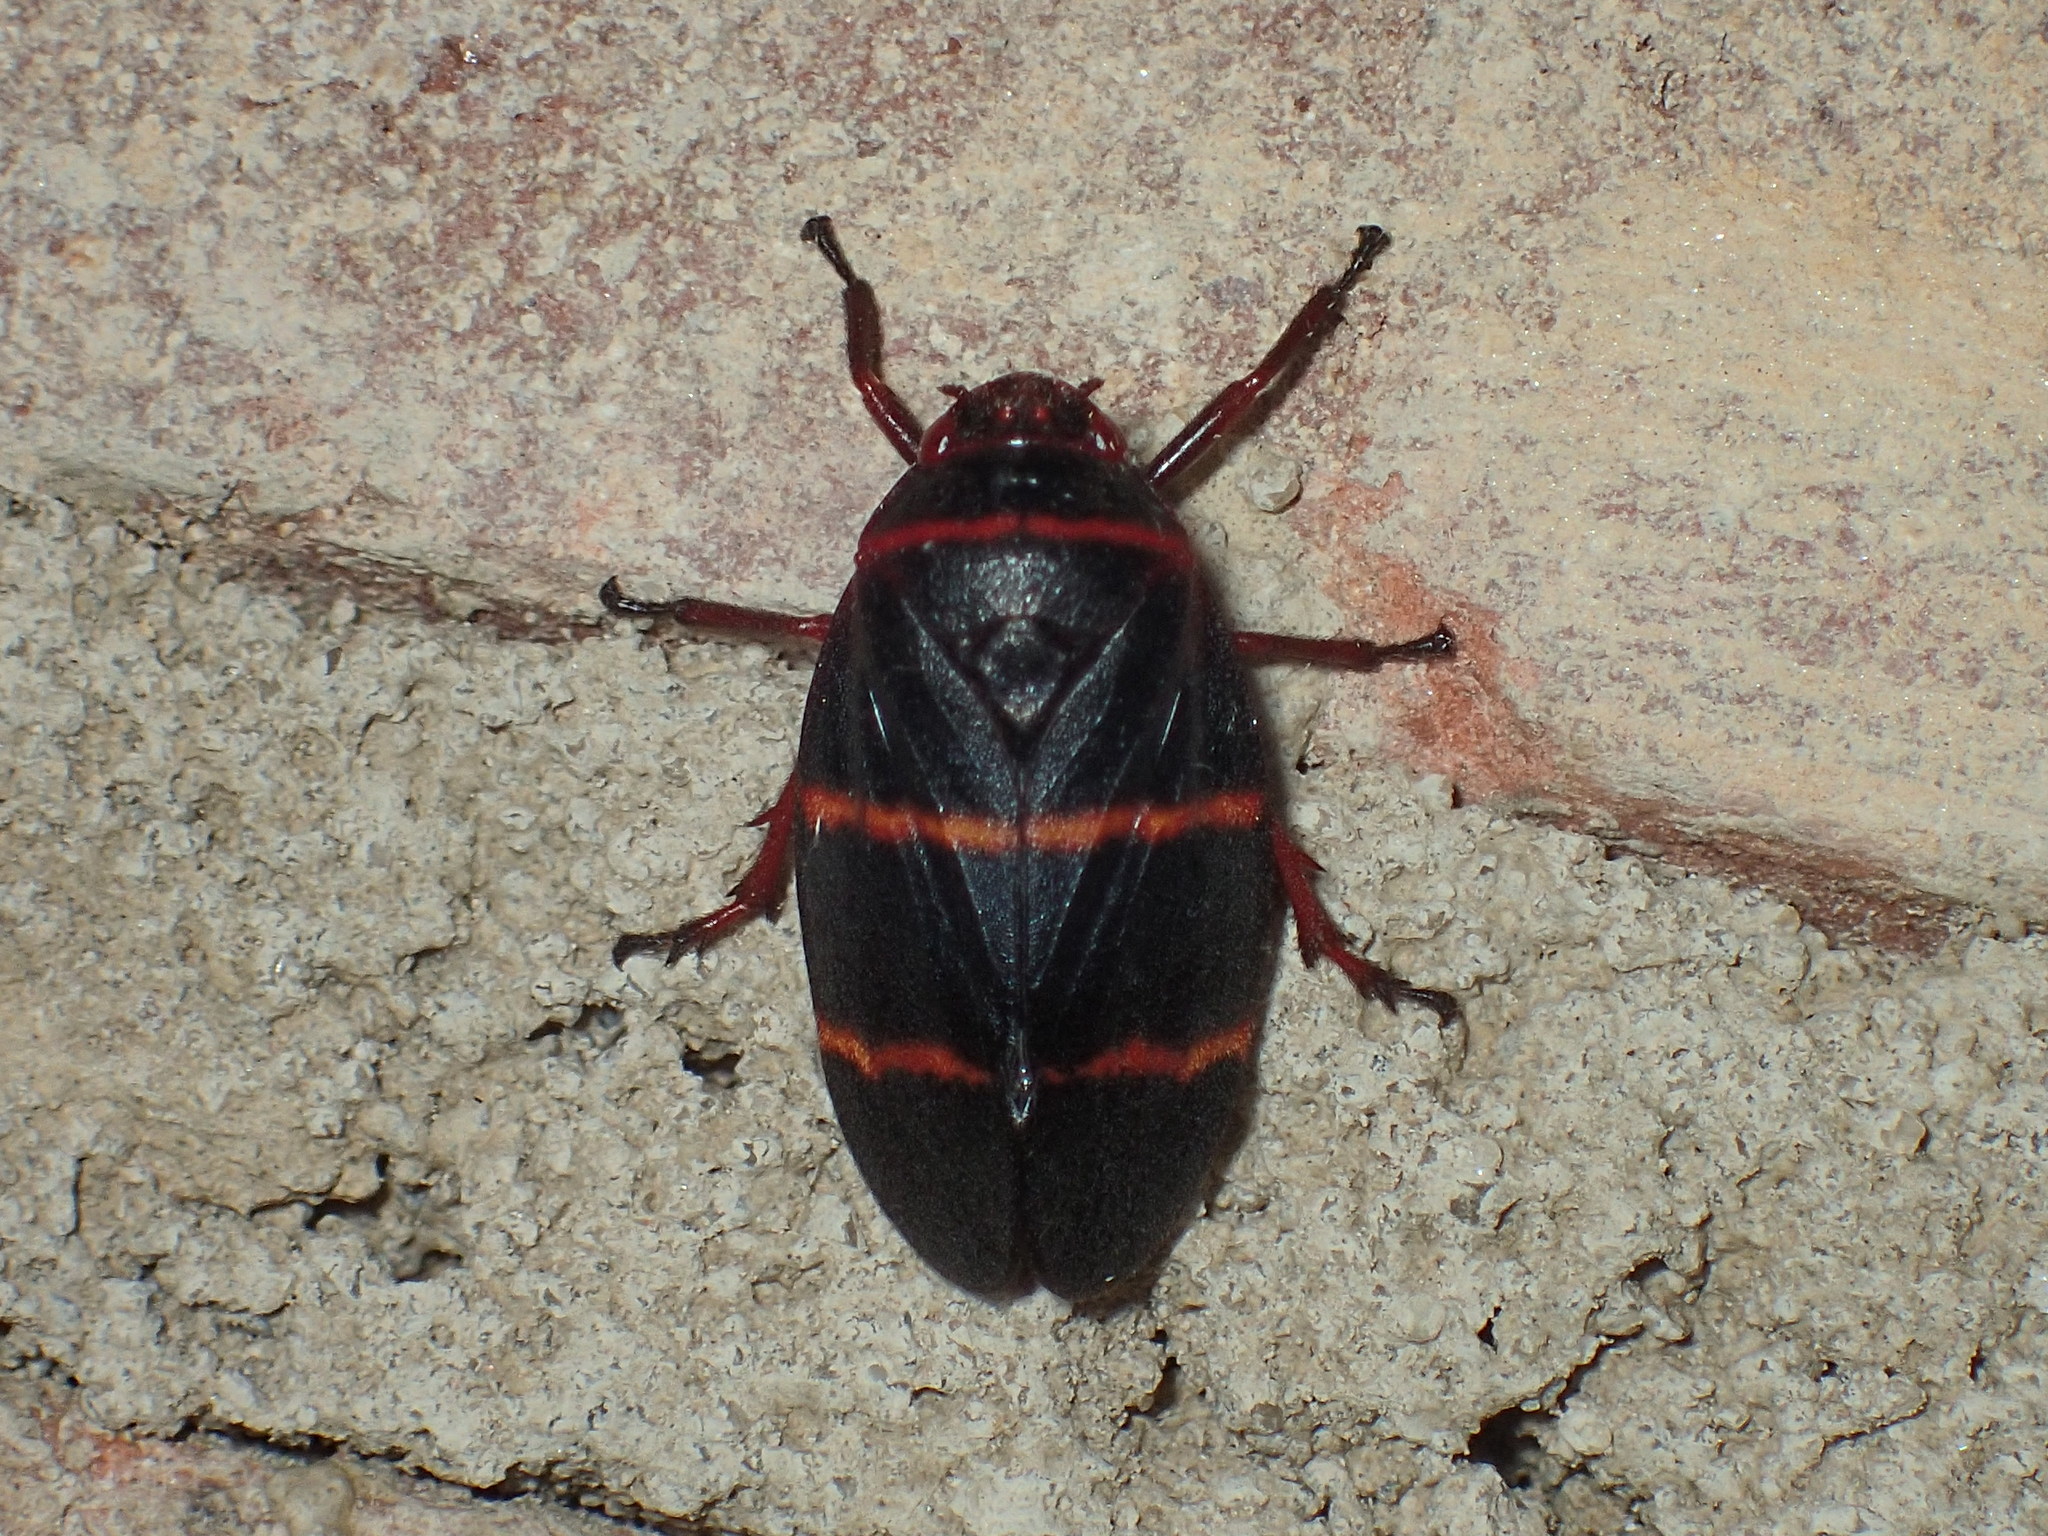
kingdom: Animalia
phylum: Arthropoda
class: Insecta
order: Hemiptera
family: Cercopidae
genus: Prosapia
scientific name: Prosapia bicincta
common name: Twolined spittlebug
